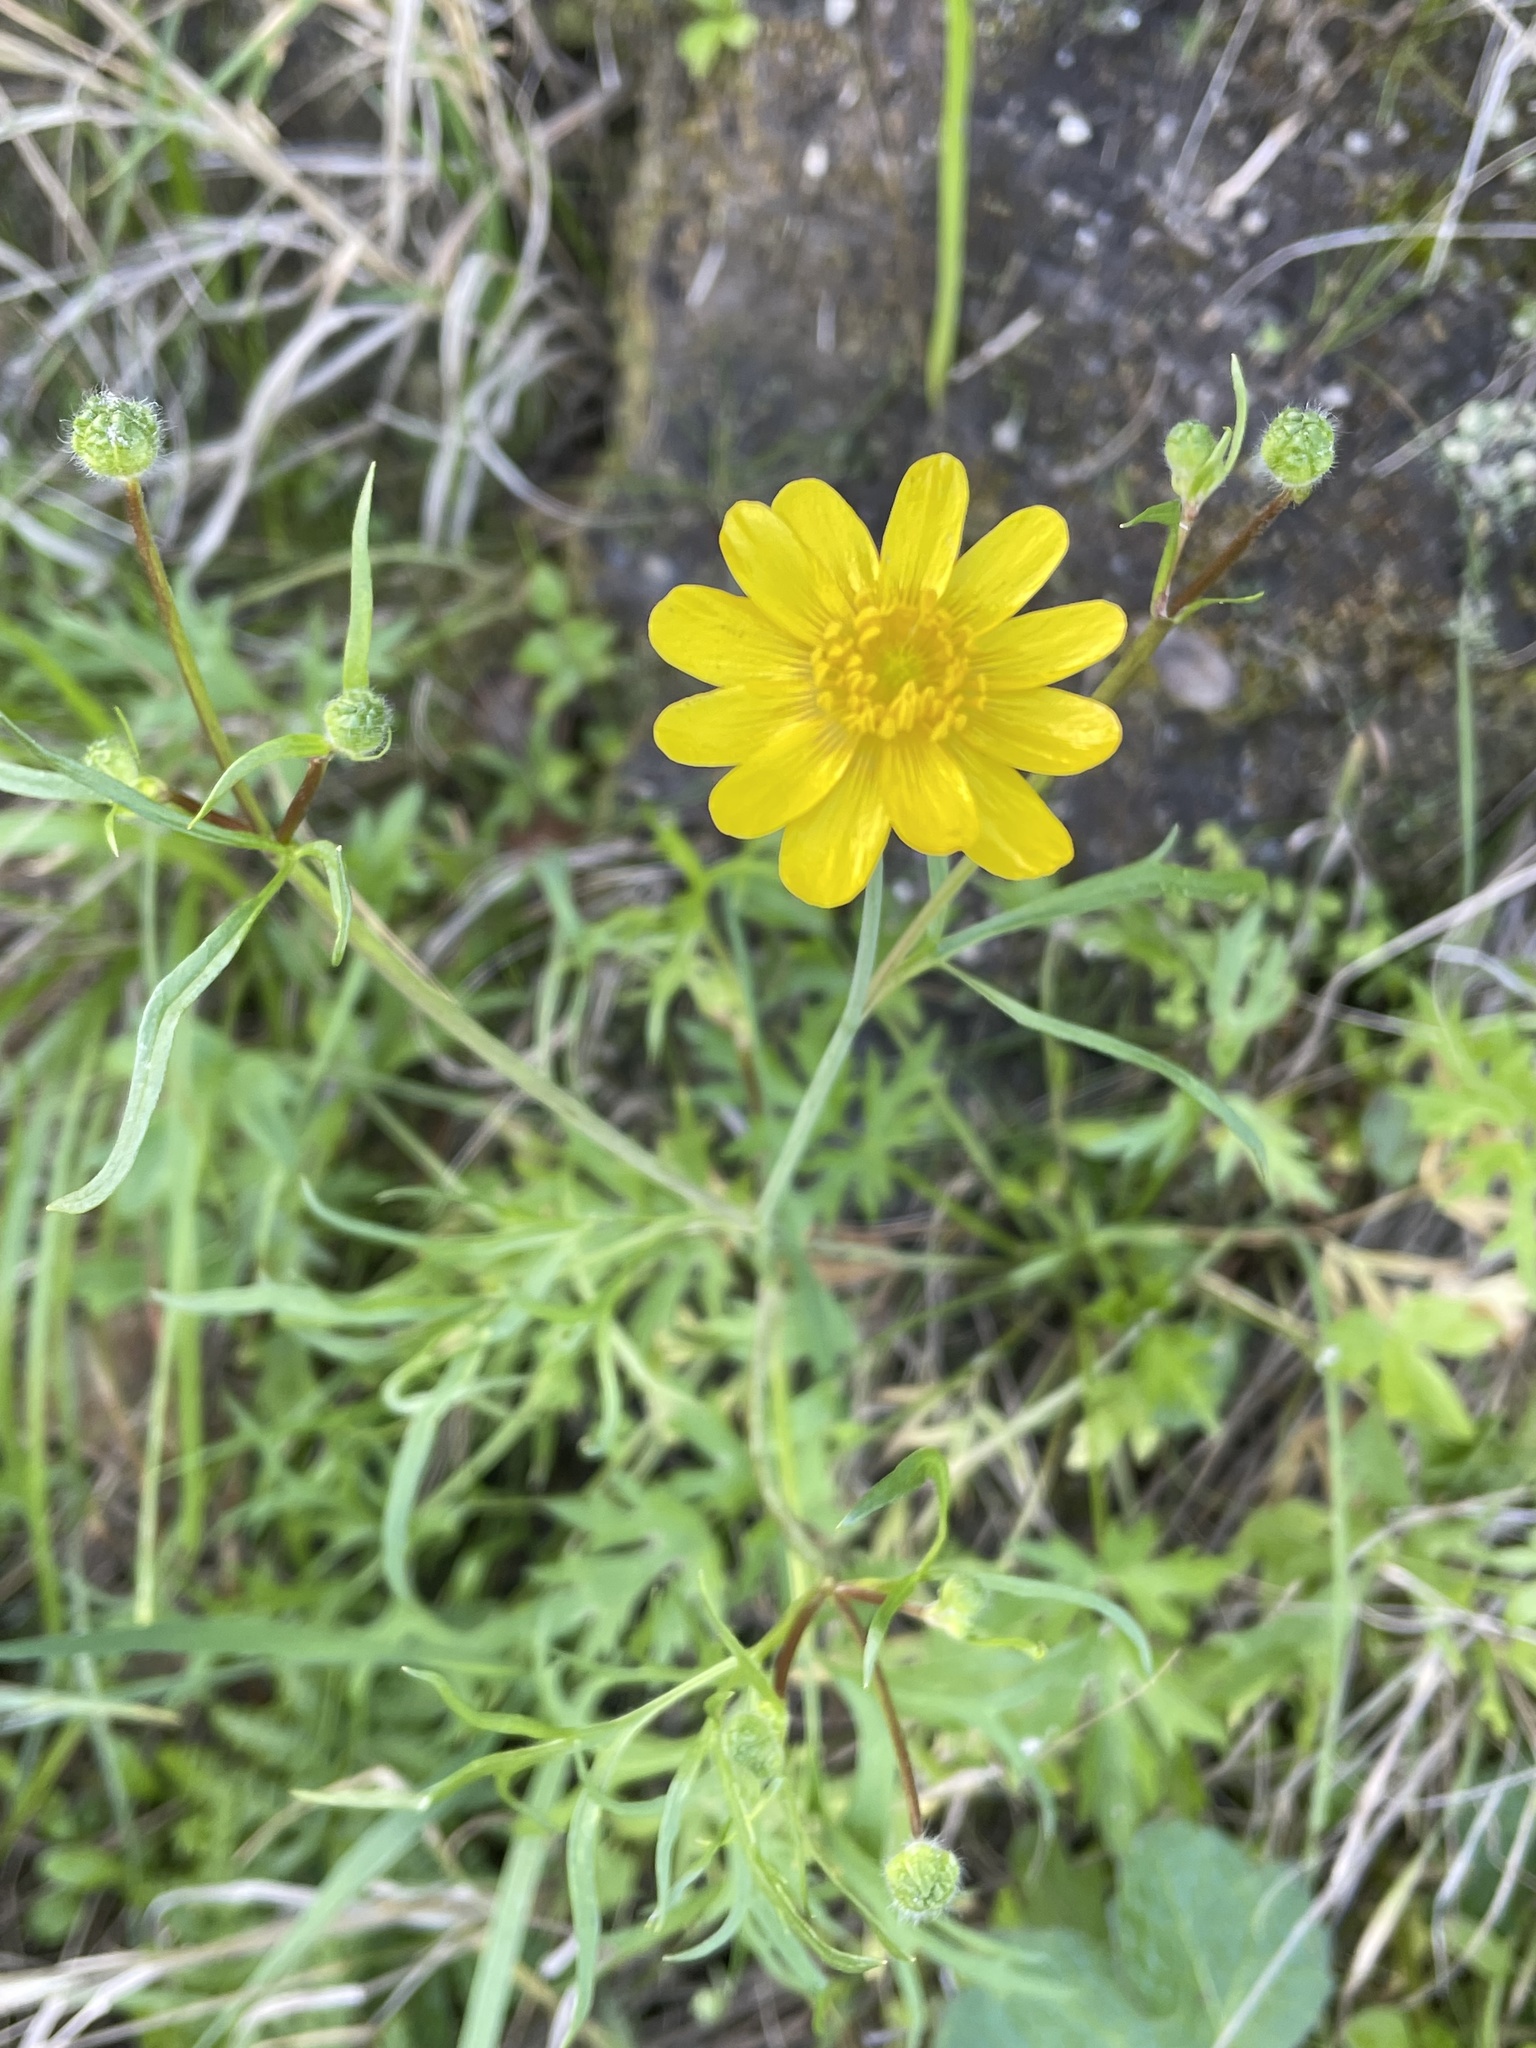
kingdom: Plantae
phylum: Tracheophyta
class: Magnoliopsida
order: Ranunculales
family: Ranunculaceae
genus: Ranunculus
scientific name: Ranunculus californicus
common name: California buttercup
